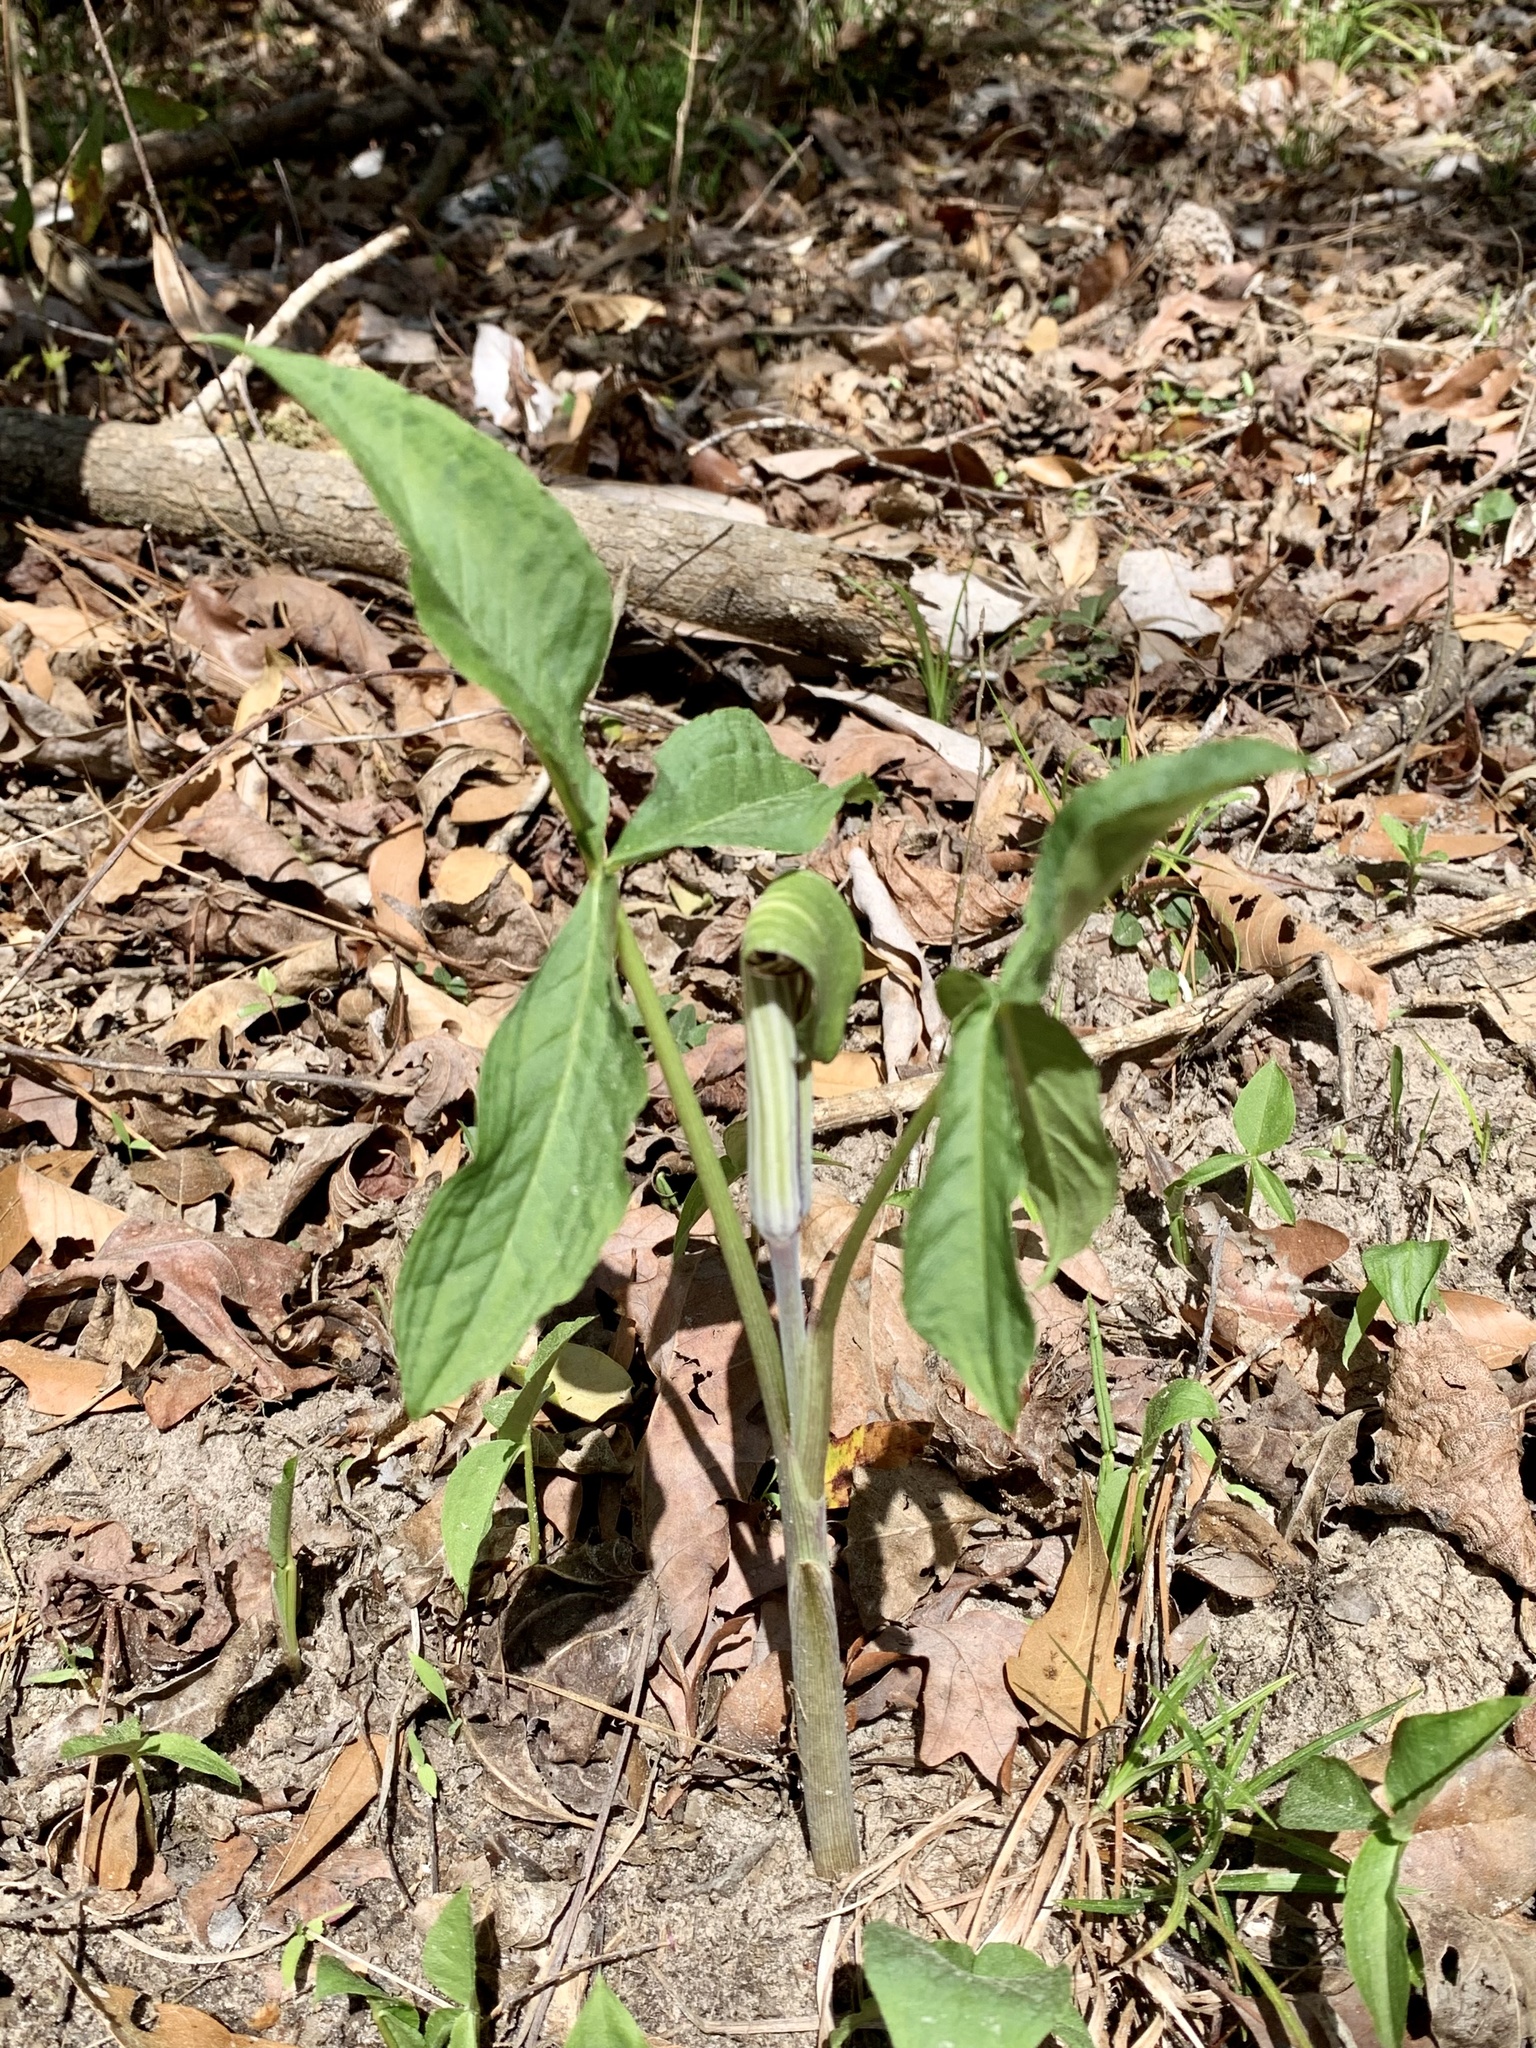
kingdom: Plantae
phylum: Tracheophyta
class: Liliopsida
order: Alismatales
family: Araceae
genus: Arisaema
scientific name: Arisaema triphyllum
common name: Jack-in-the-pulpit
